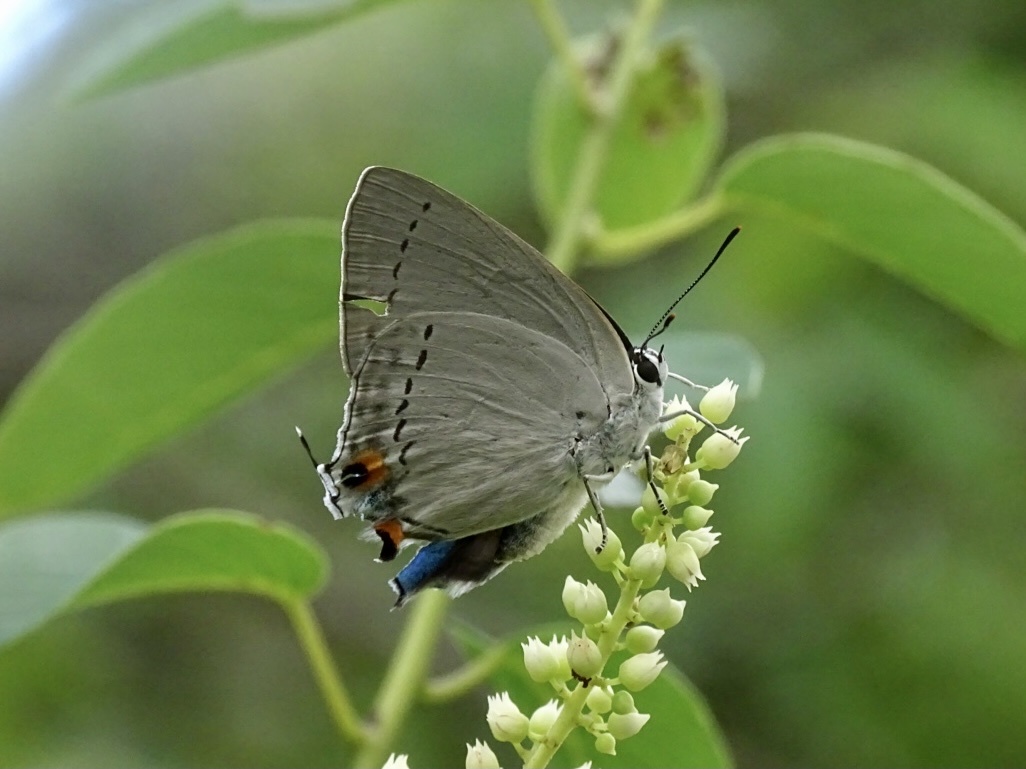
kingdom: Animalia
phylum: Arthropoda
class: Insecta
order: Lepidoptera
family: Lycaenidae
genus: Tajuria
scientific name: Tajuria cippus
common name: Peacock royal
